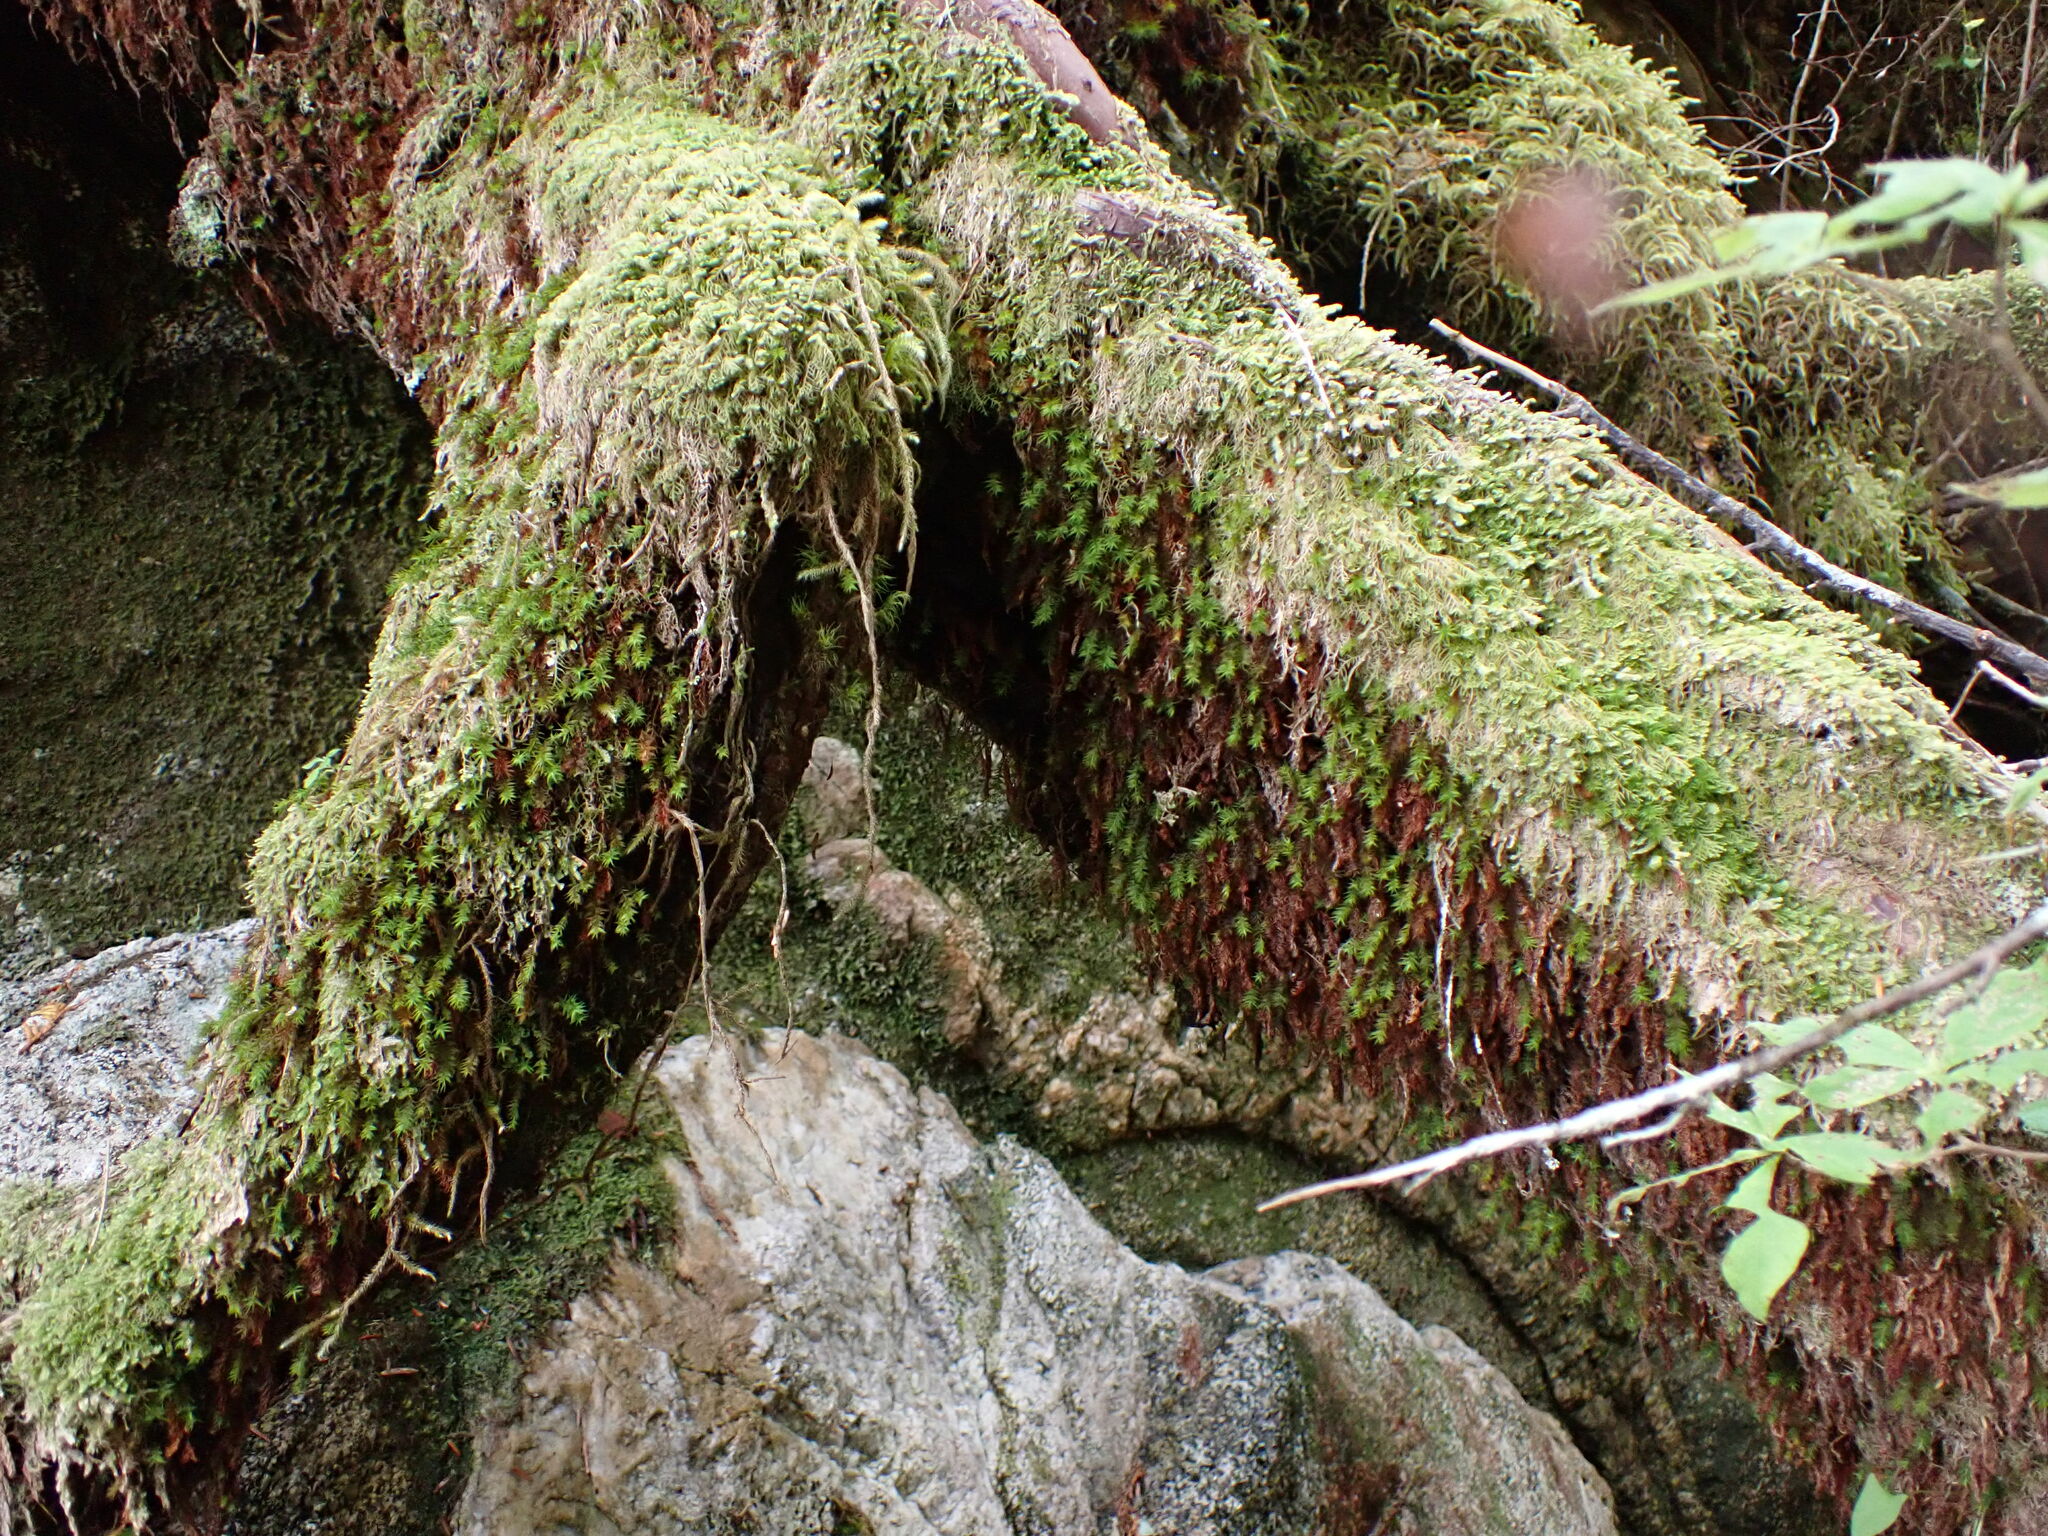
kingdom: Plantae
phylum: Bryophyta
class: Polytrichopsida
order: Polytrichales
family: Polytrichaceae
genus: Bartramiopsis
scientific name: Bartramiopsis lescurii
